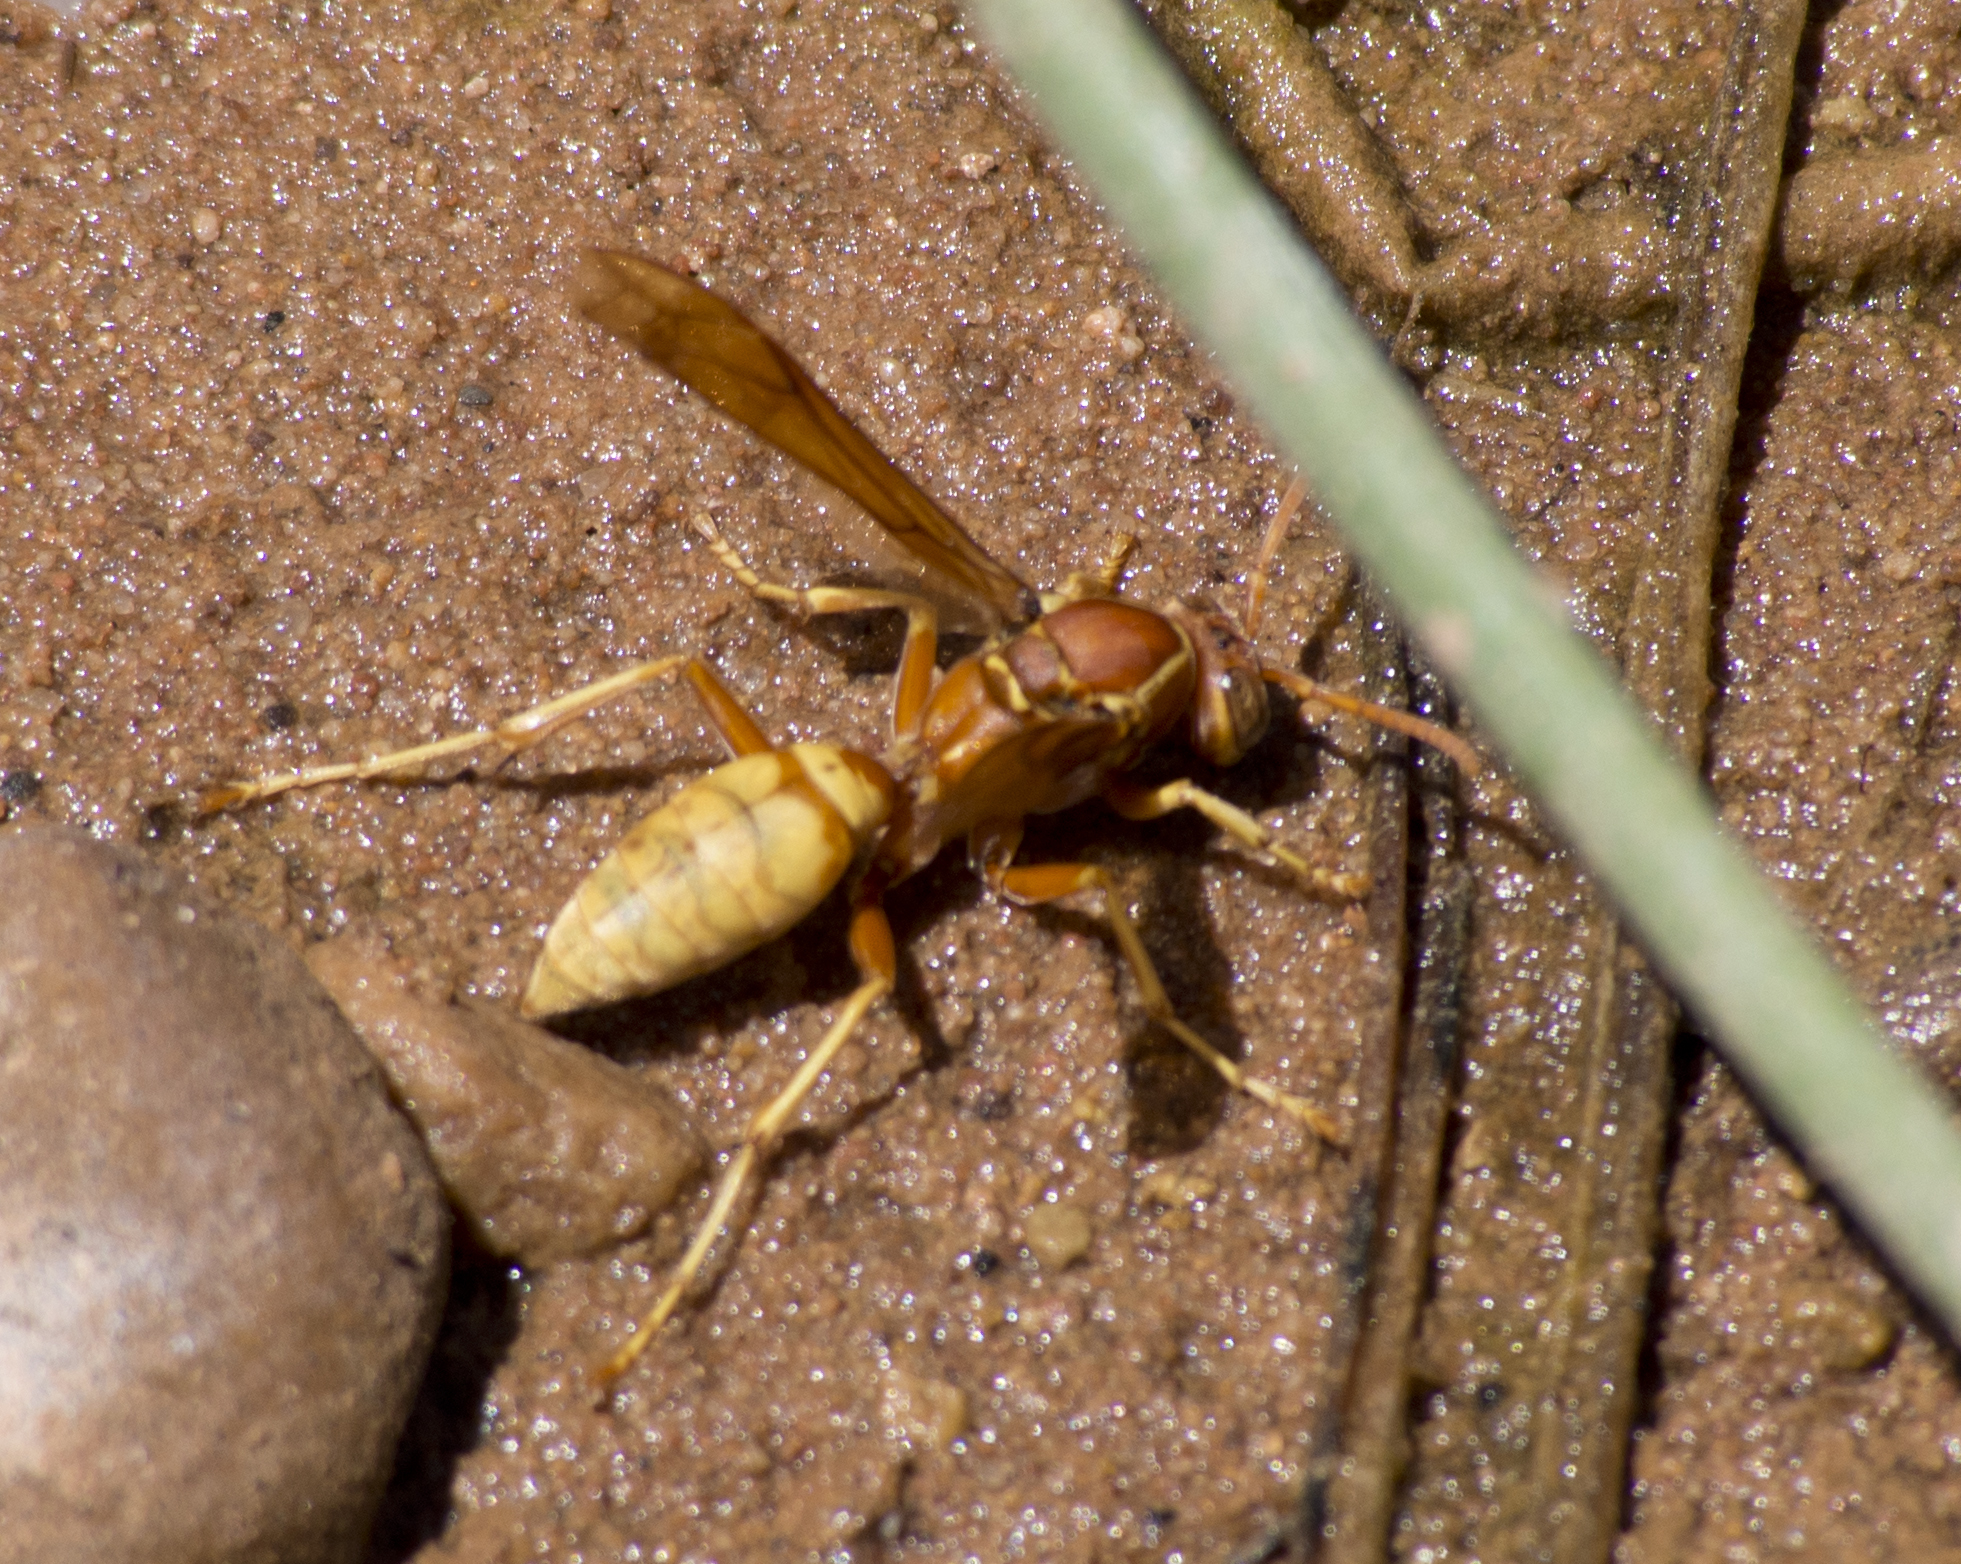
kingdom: Animalia
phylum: Arthropoda
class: Insecta
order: Hymenoptera
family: Eumenidae
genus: Polistes
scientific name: Polistes aurifer
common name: Paper wasp
